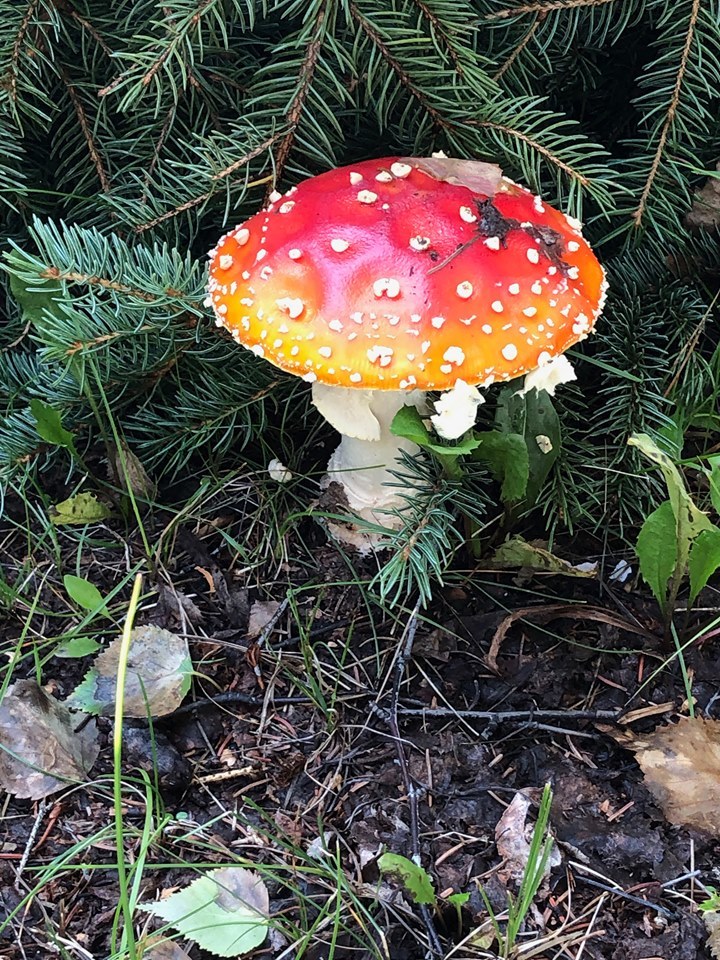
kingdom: Fungi
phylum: Basidiomycota
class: Agaricomycetes
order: Agaricales
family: Amanitaceae
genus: Amanita
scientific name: Amanita muscaria
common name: Fly agaric
